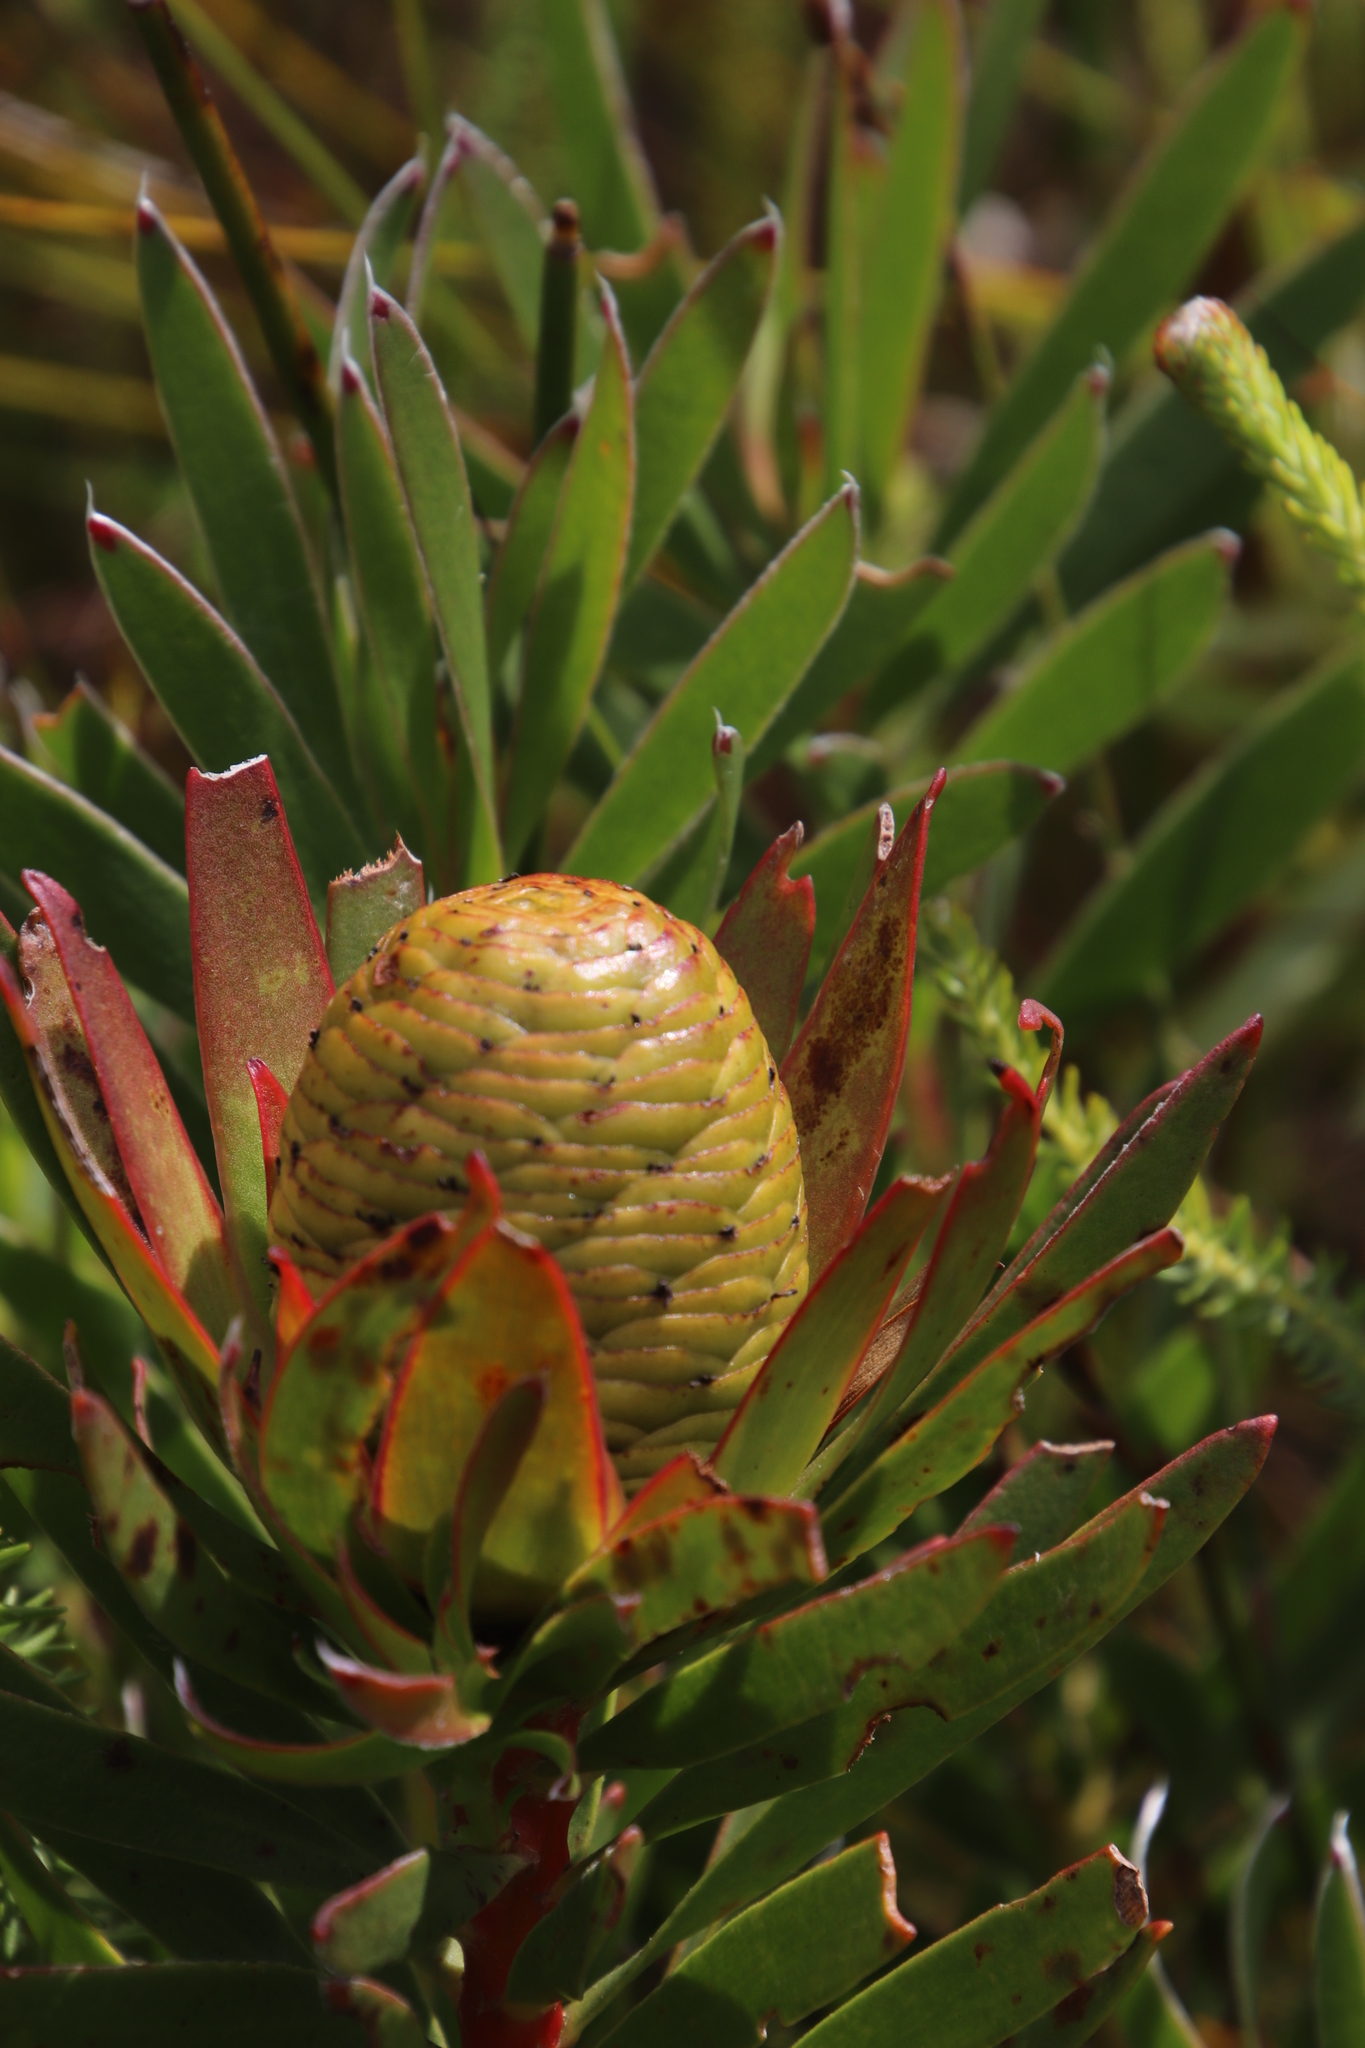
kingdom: Plantae
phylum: Tracheophyta
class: Magnoliopsida
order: Proteales
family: Proteaceae
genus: Leucadendron
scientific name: Leucadendron spissifolium
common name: Spear-leaf conebush
